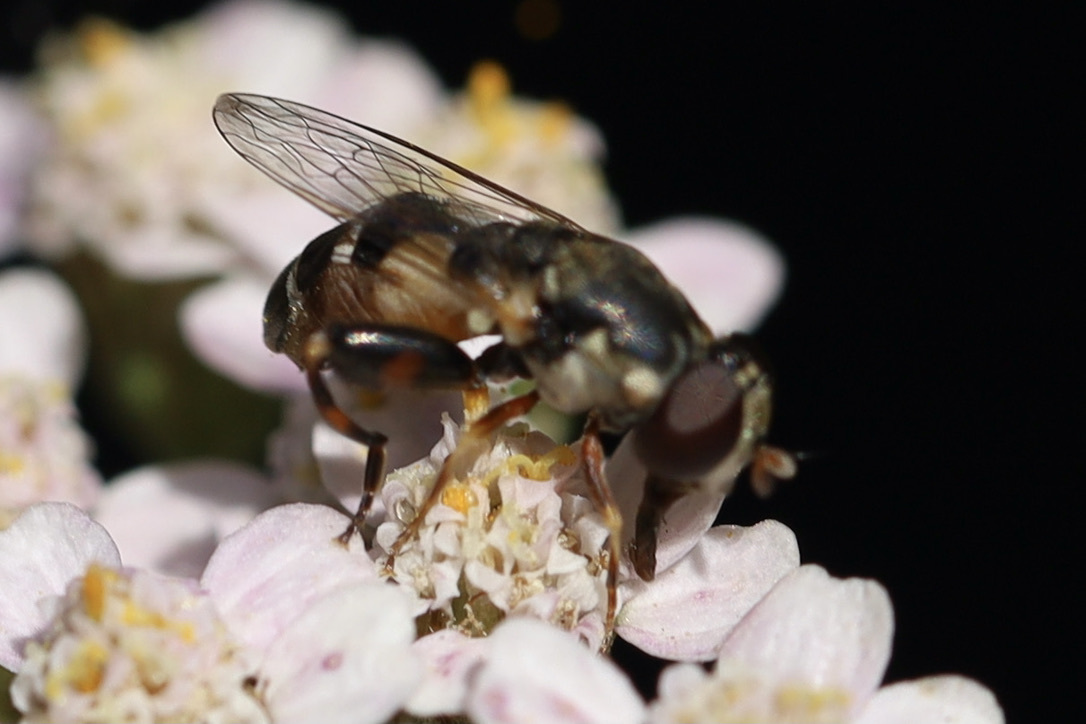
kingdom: Animalia
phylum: Arthropoda
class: Insecta
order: Diptera
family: Syrphidae
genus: Syritta
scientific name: Syritta pipiens
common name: Hover fly
